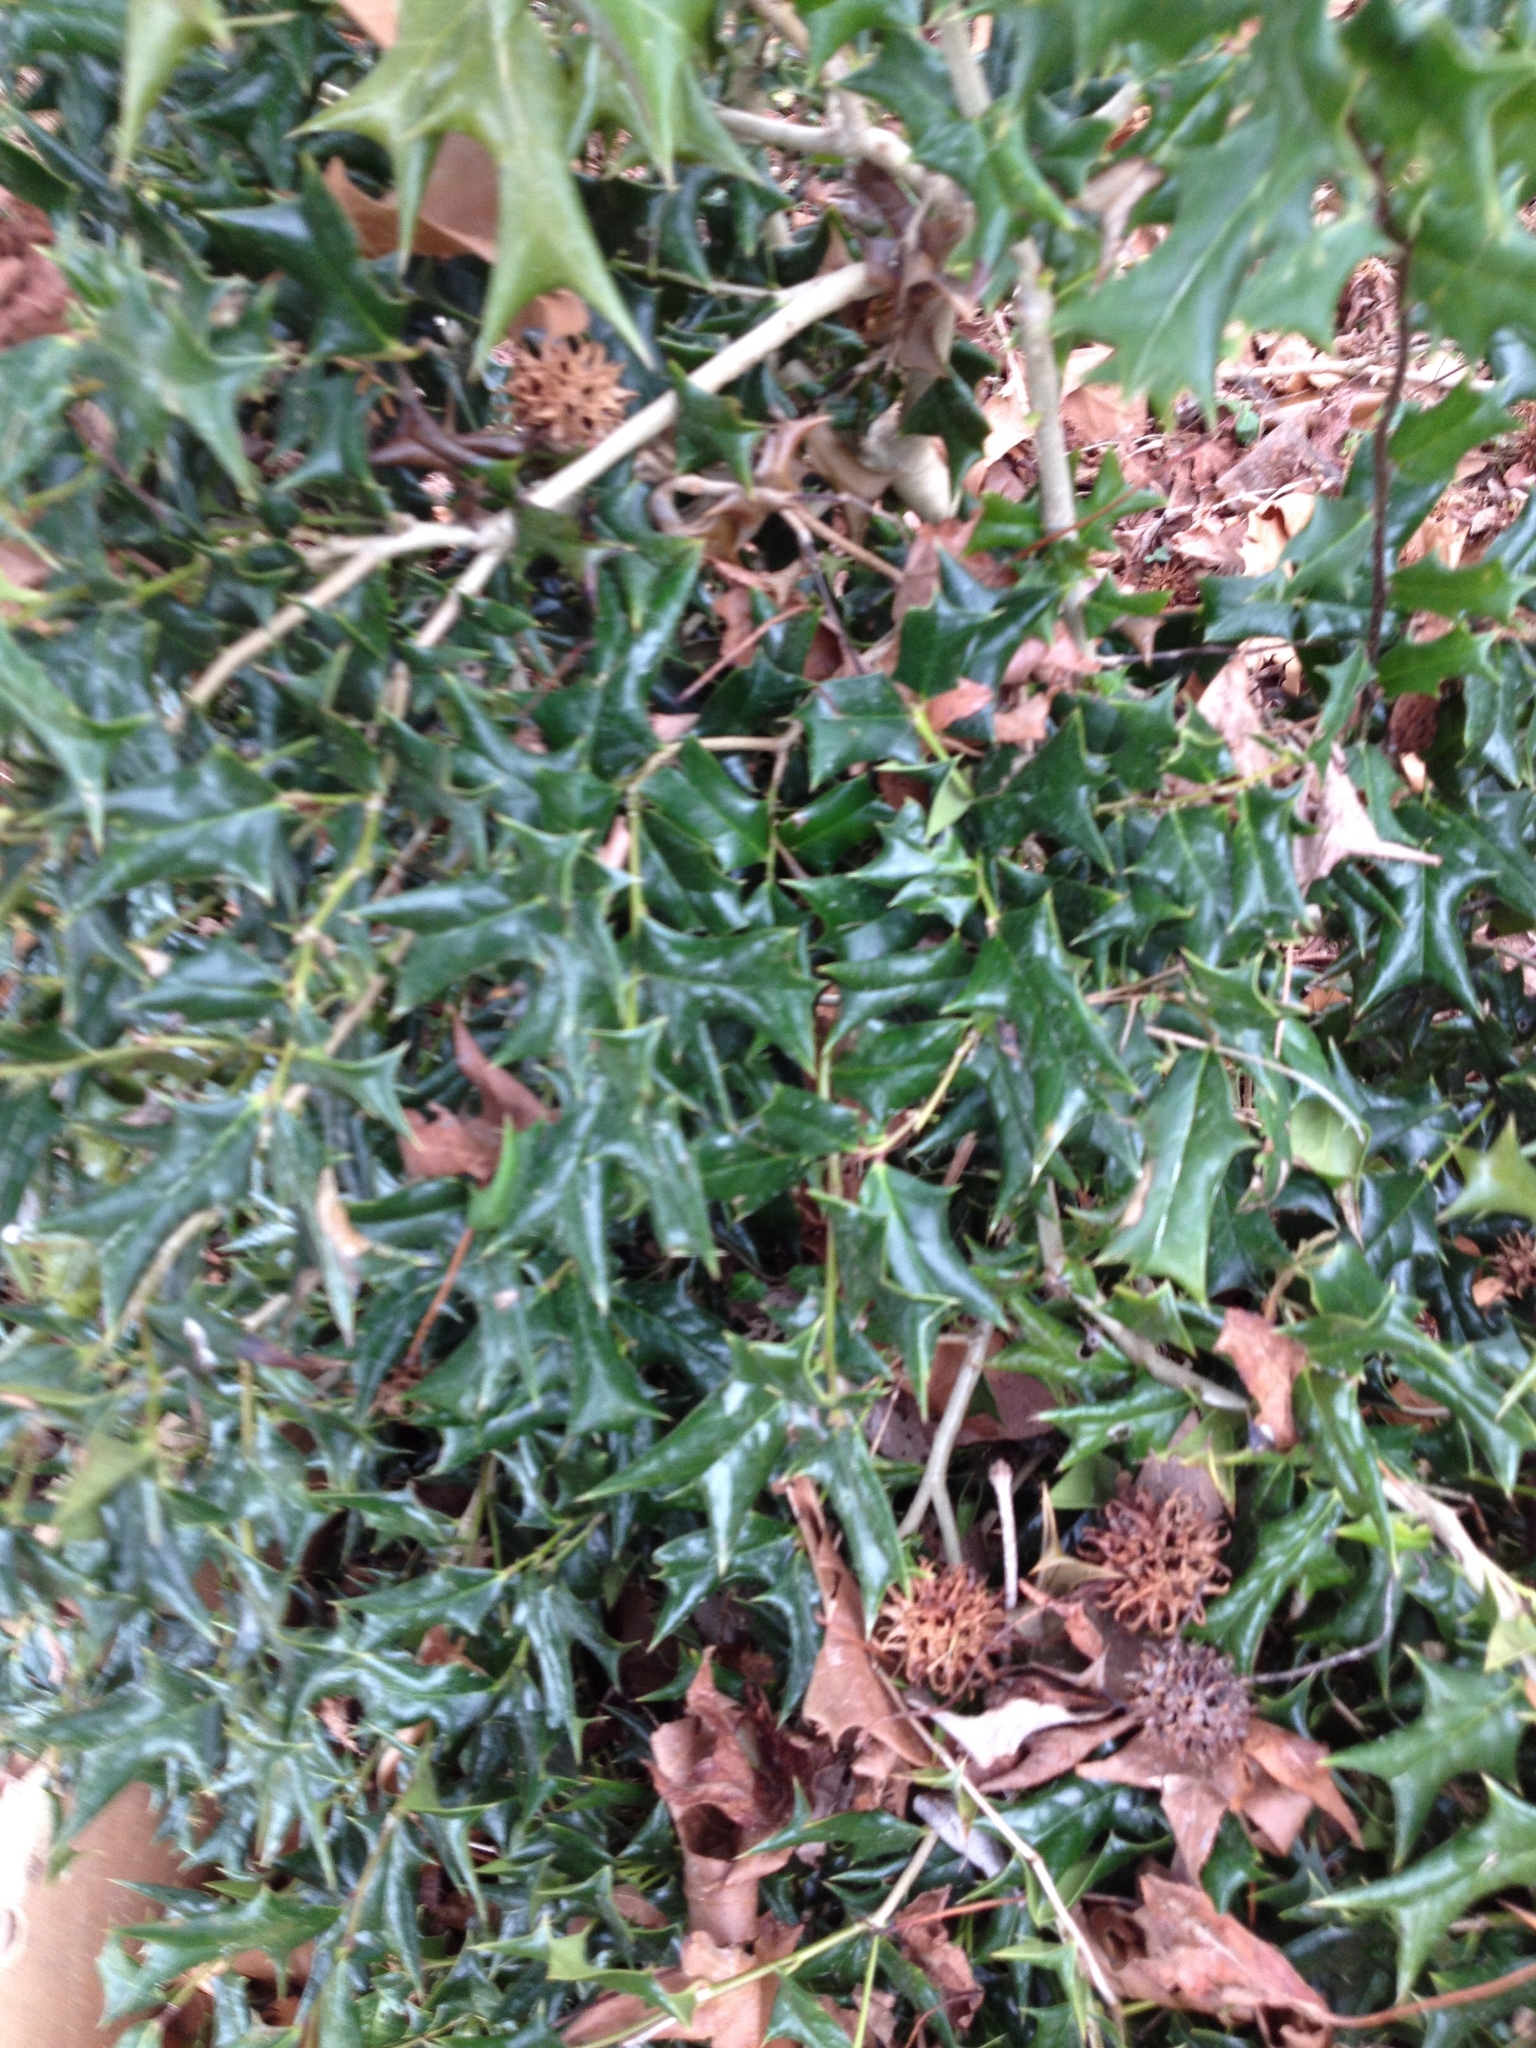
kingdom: Plantae
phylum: Tracheophyta
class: Magnoliopsida
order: Aquifoliales
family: Aquifoliaceae
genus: Ilex
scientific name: Ilex cornuta
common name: Chinese holly
